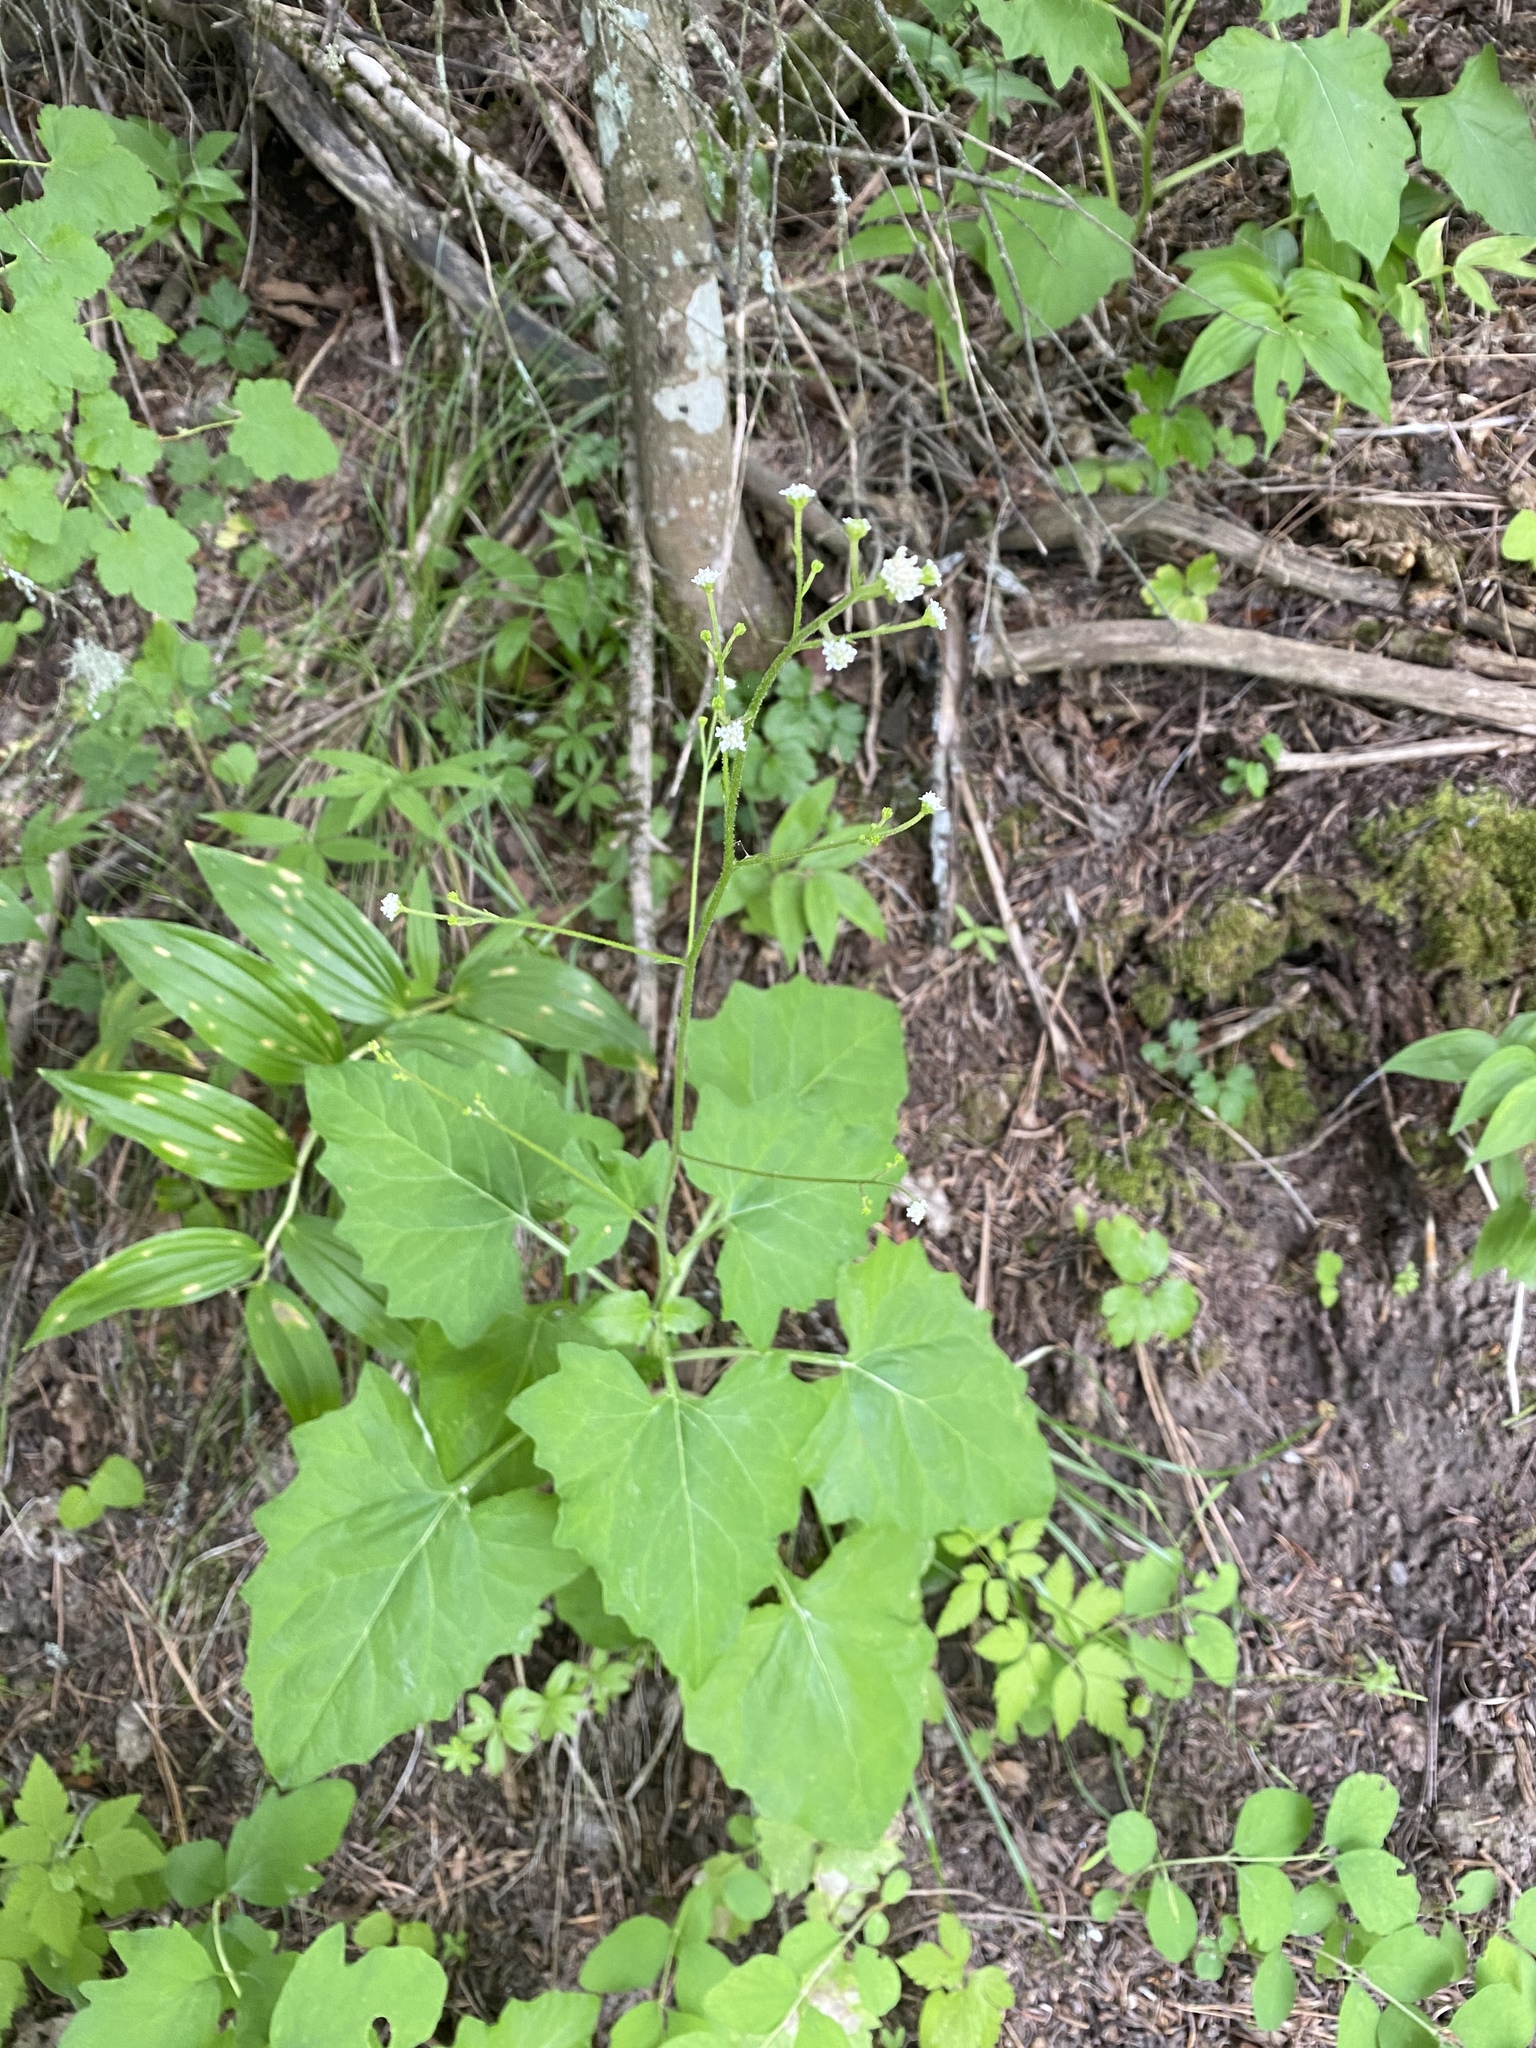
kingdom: Plantae
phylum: Tracheophyta
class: Magnoliopsida
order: Asterales
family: Asteraceae
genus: Adenocaulon
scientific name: Adenocaulon bicolor
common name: Trailplant
